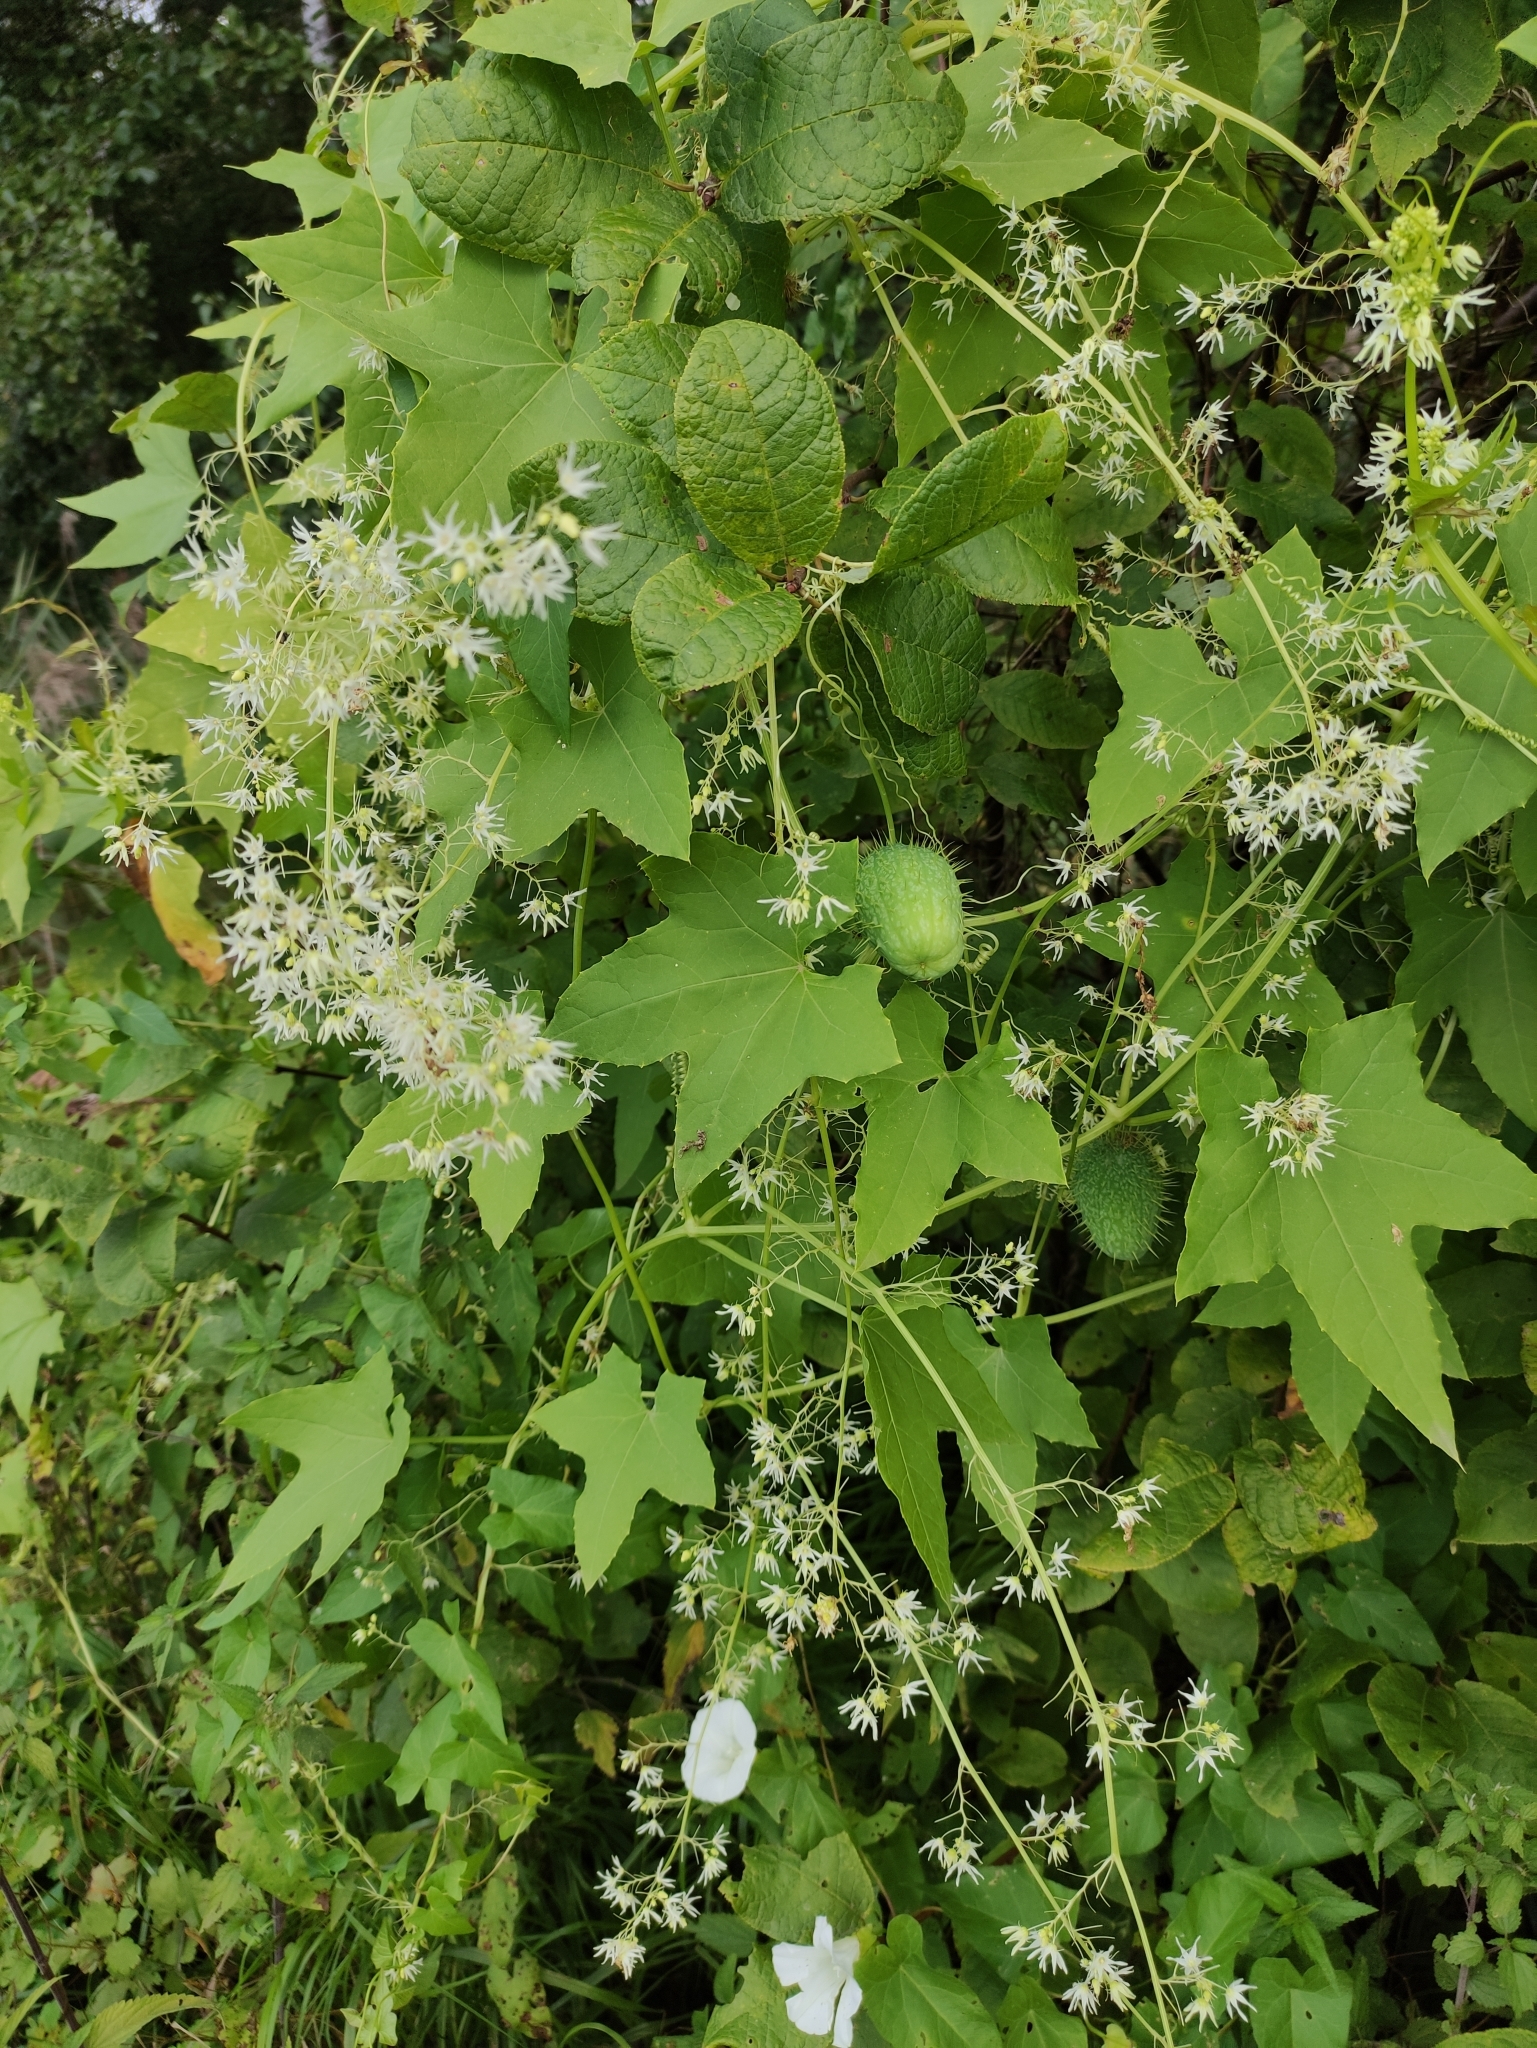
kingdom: Plantae
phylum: Tracheophyta
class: Magnoliopsida
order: Cucurbitales
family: Cucurbitaceae
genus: Echinocystis
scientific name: Echinocystis lobata
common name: Wild cucumber
